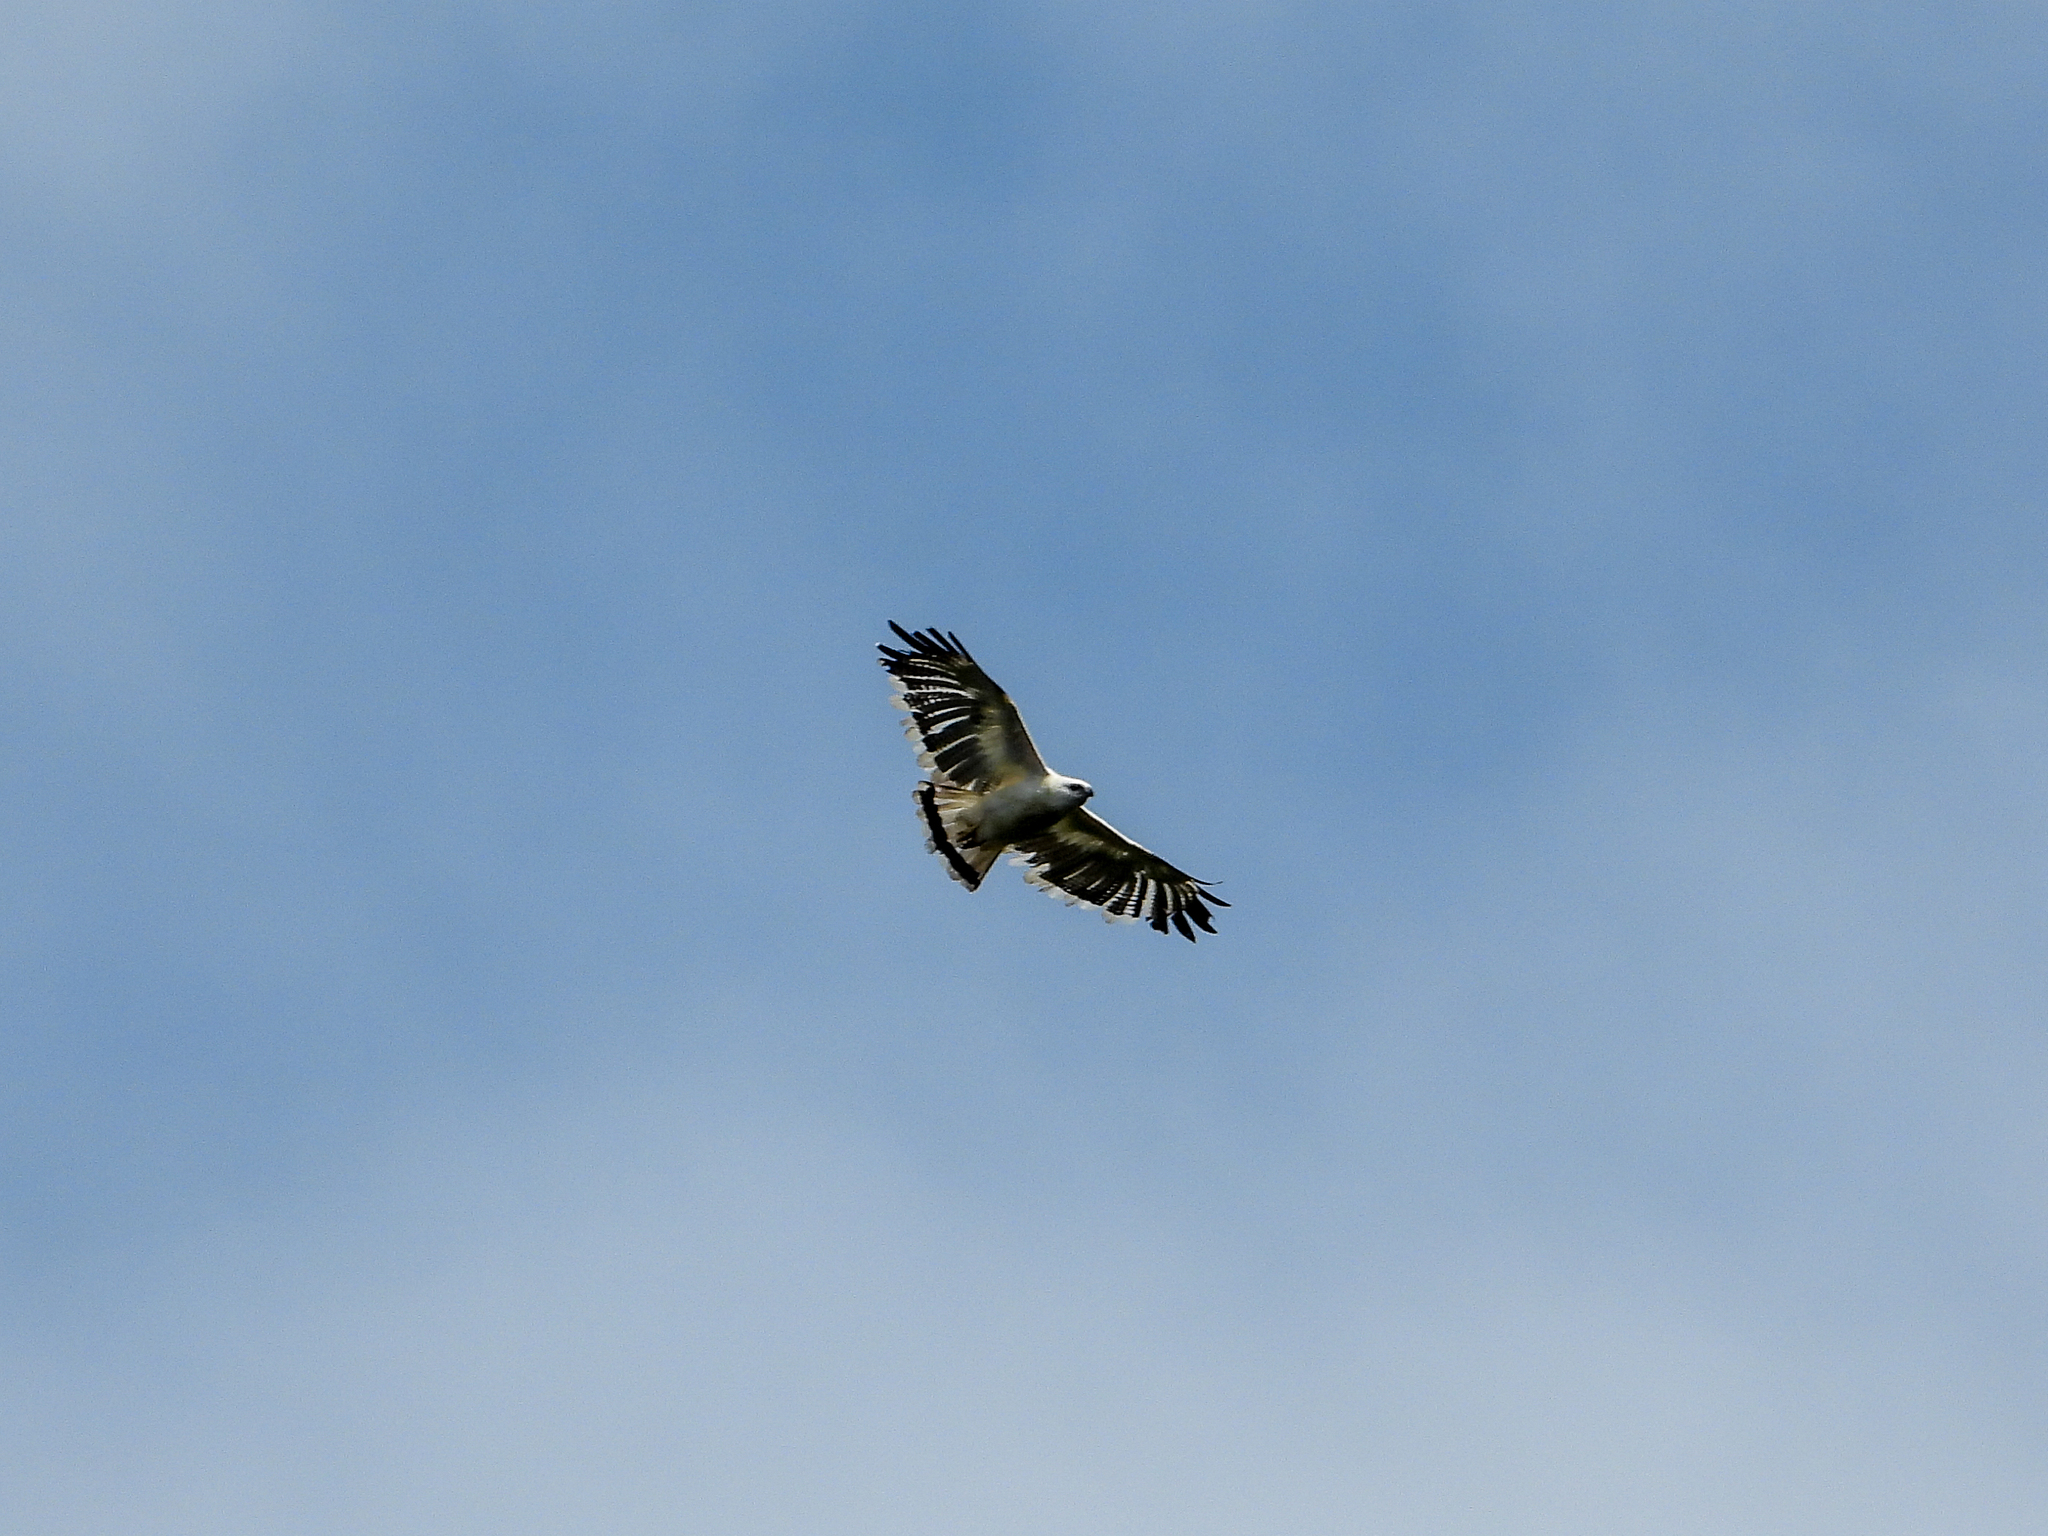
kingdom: Animalia
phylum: Chordata
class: Aves
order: Accipitriformes
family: Accipitridae
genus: Leucopternis
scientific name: Leucopternis albicollis
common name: White hawk
